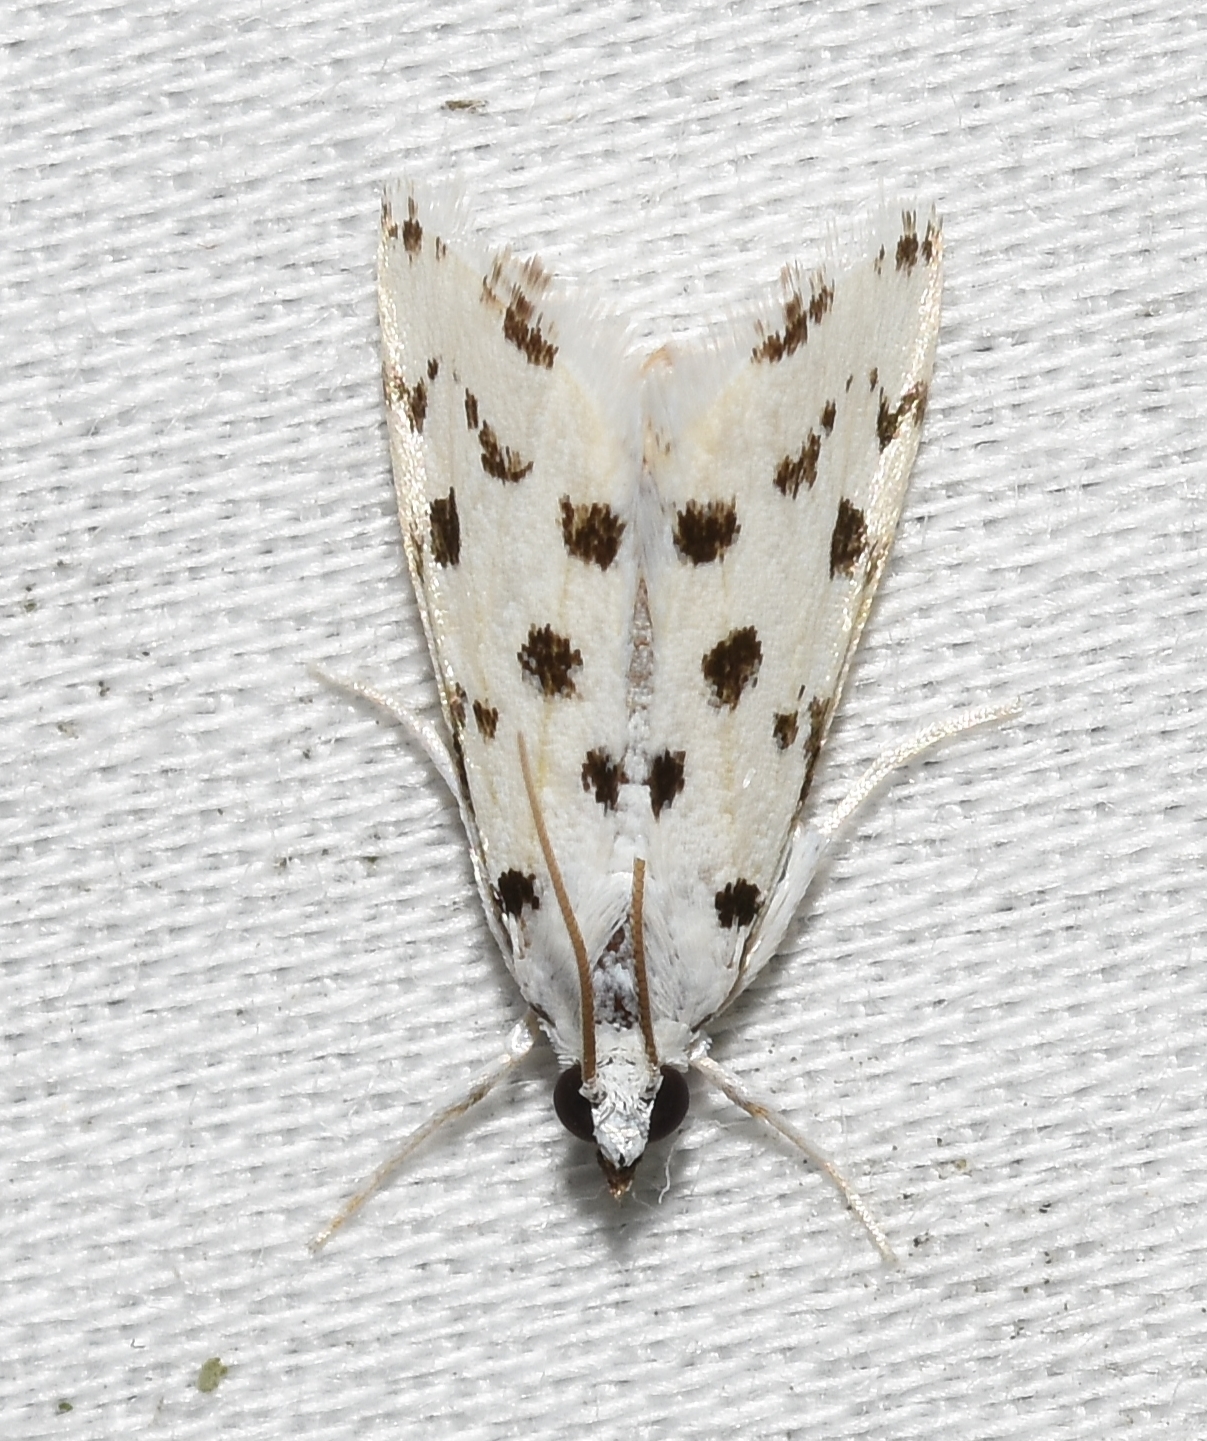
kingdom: Animalia
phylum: Arthropoda
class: Insecta
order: Lepidoptera
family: Crambidae
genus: Eustixia
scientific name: Eustixia pupula
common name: American cabbage pearl
